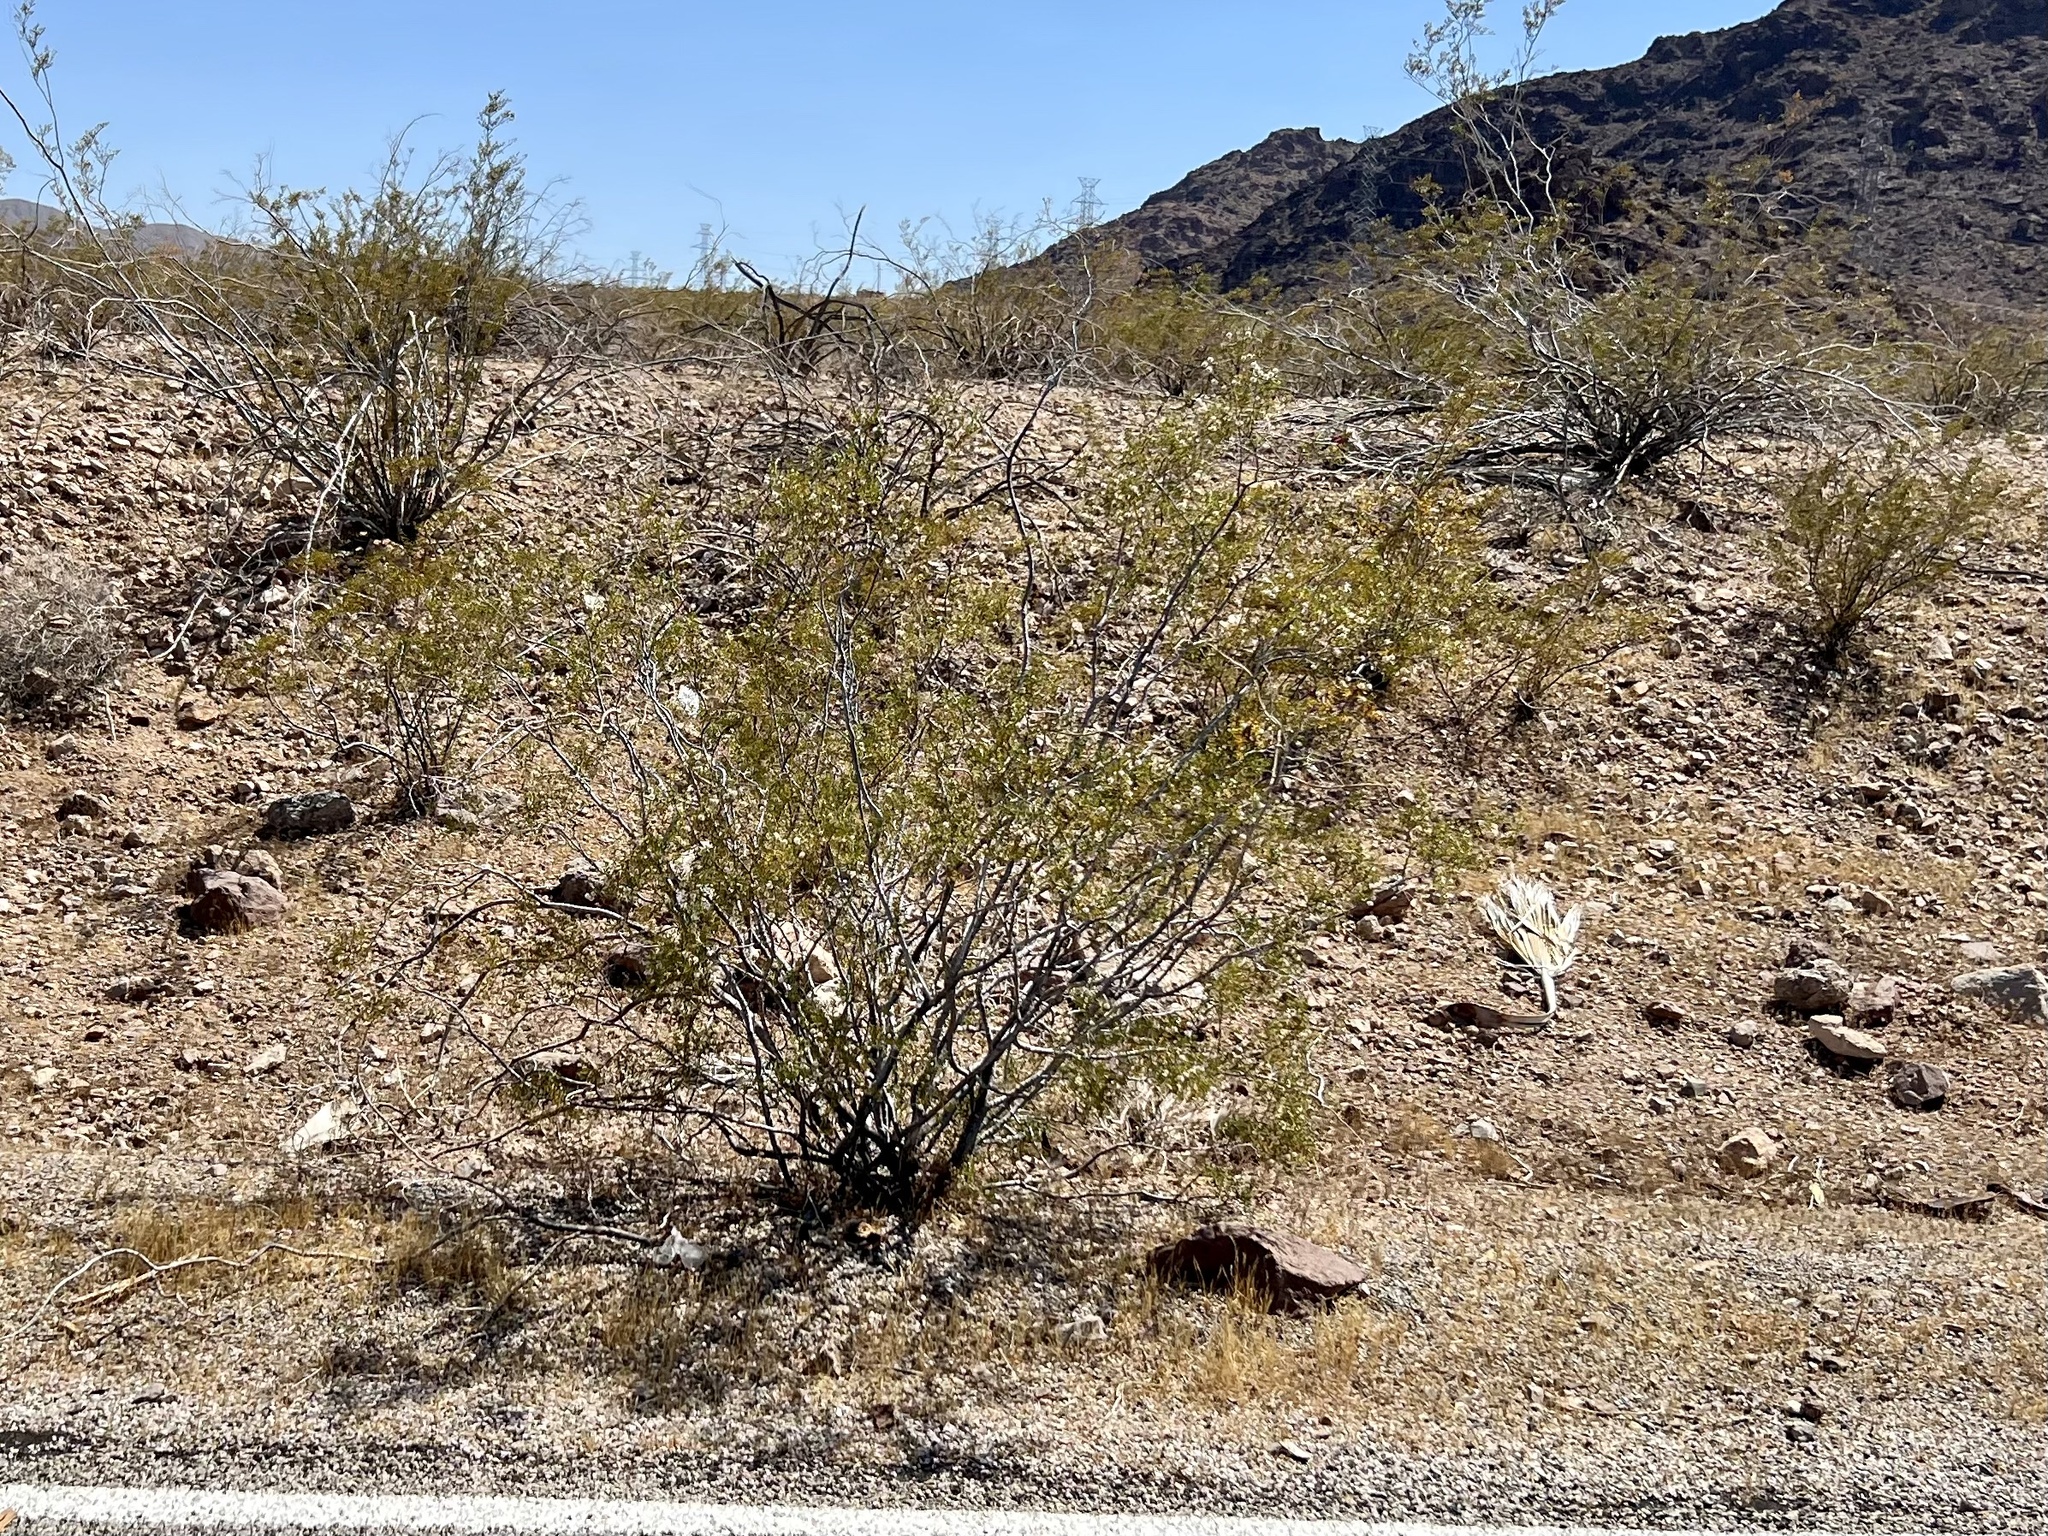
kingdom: Plantae
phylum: Tracheophyta
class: Magnoliopsida
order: Zygophyllales
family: Zygophyllaceae
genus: Larrea
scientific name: Larrea tridentata
